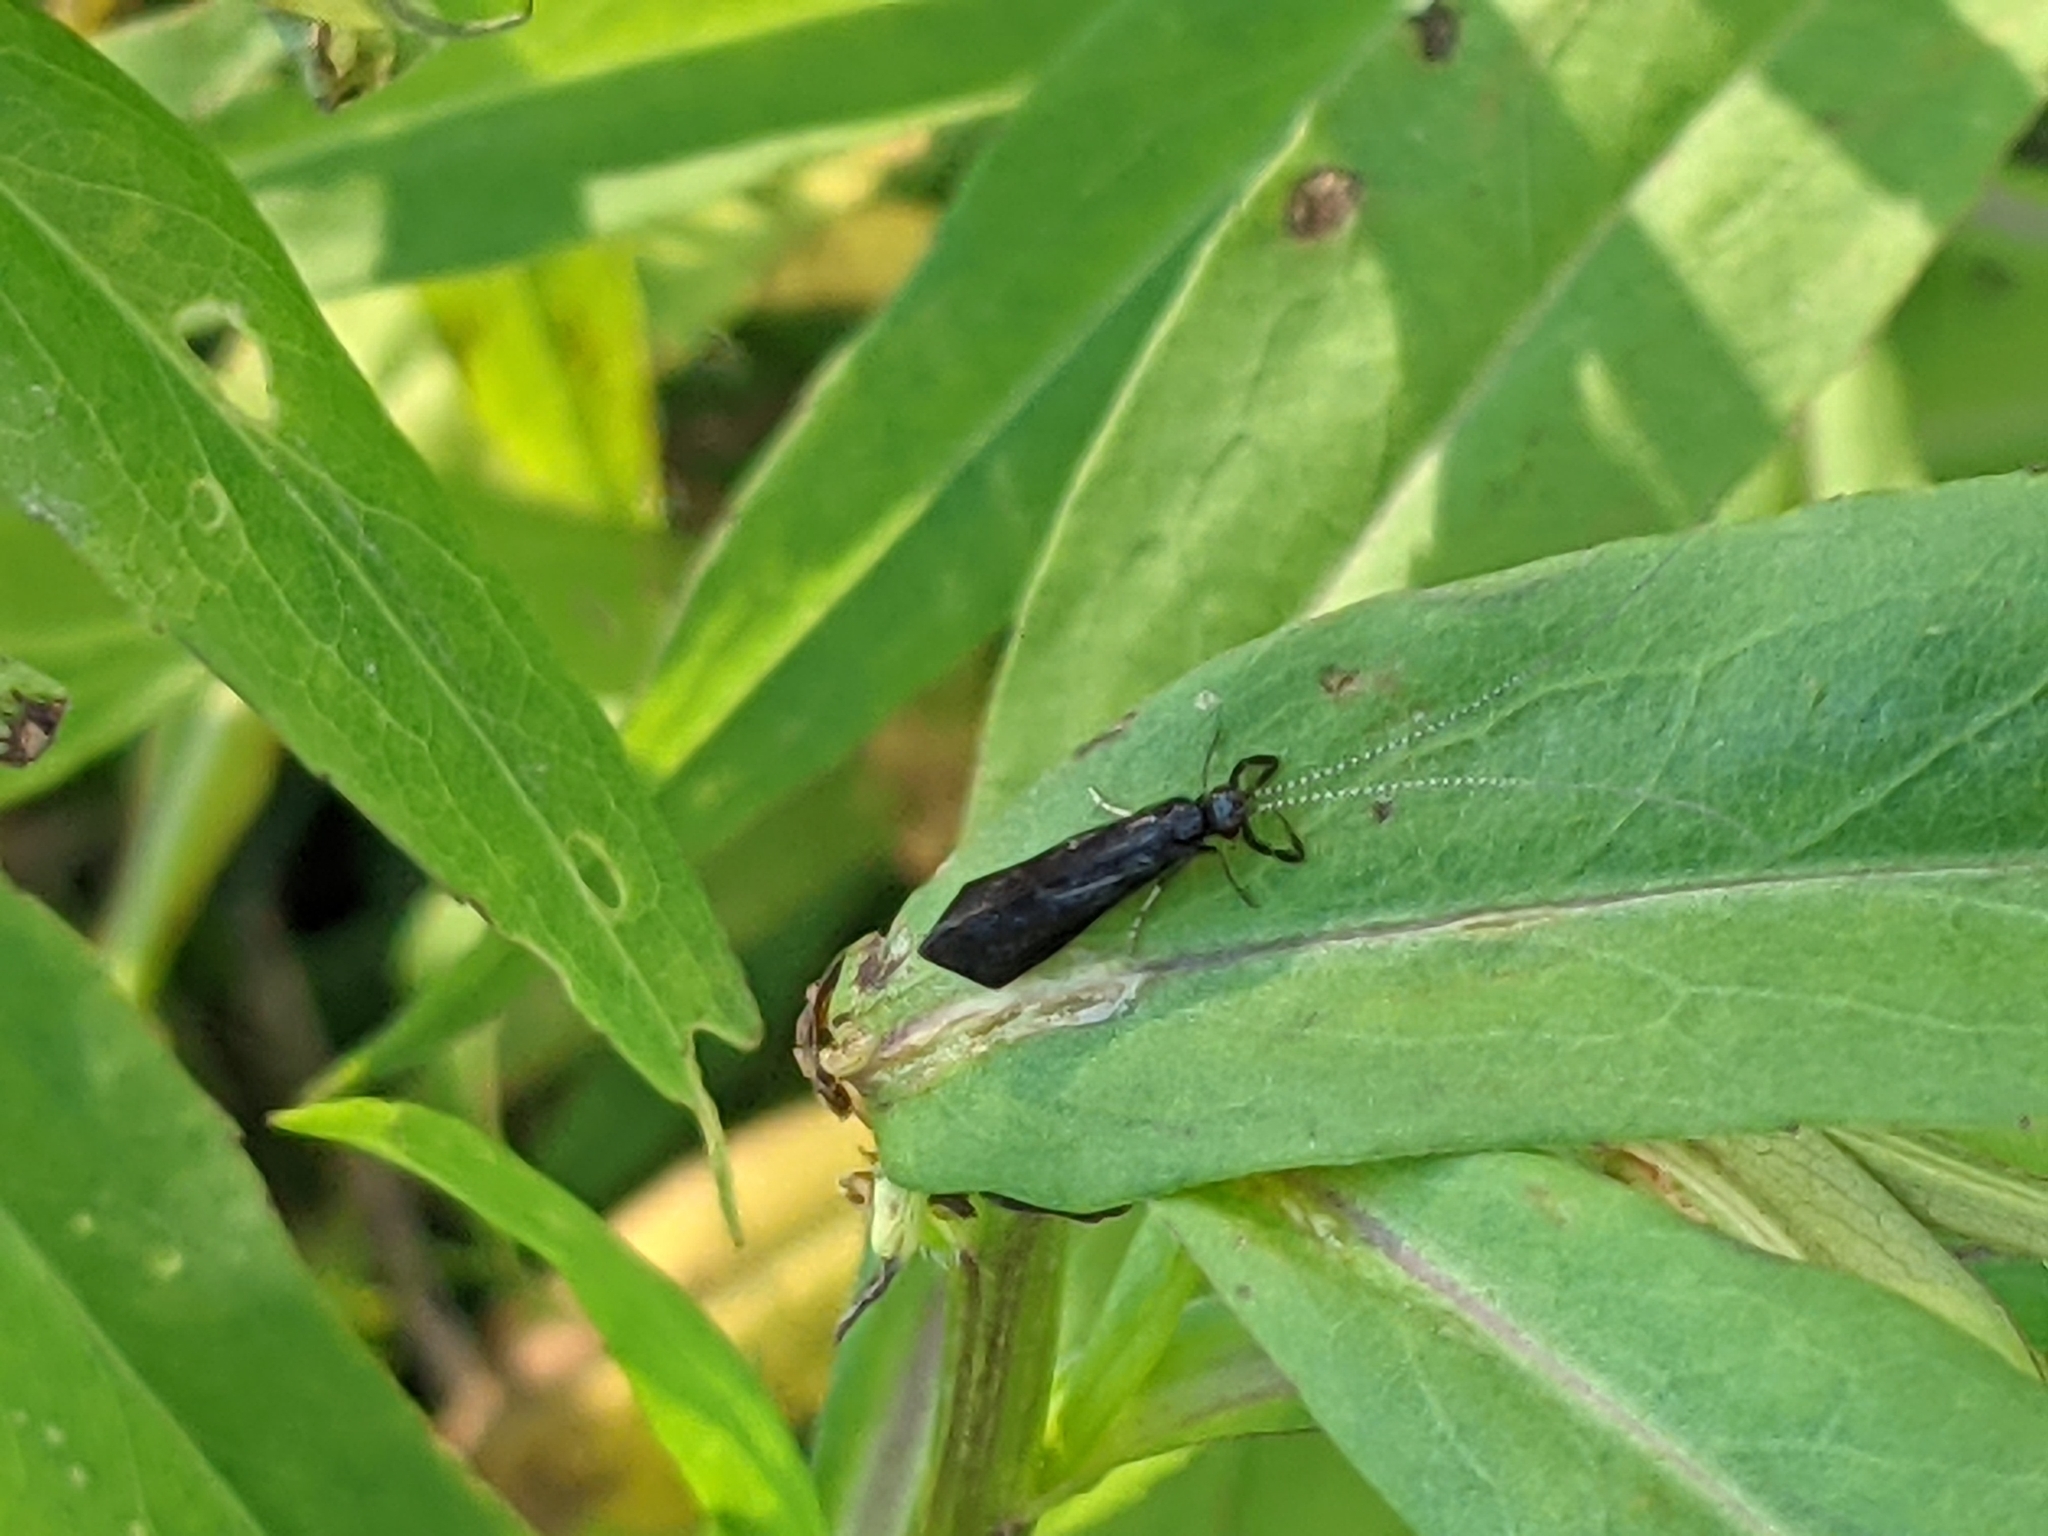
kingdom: Animalia
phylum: Arthropoda
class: Insecta
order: Trichoptera
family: Leptoceridae
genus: Mystacides
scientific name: Mystacides sepulchralis
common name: Black dancer caddisfly
